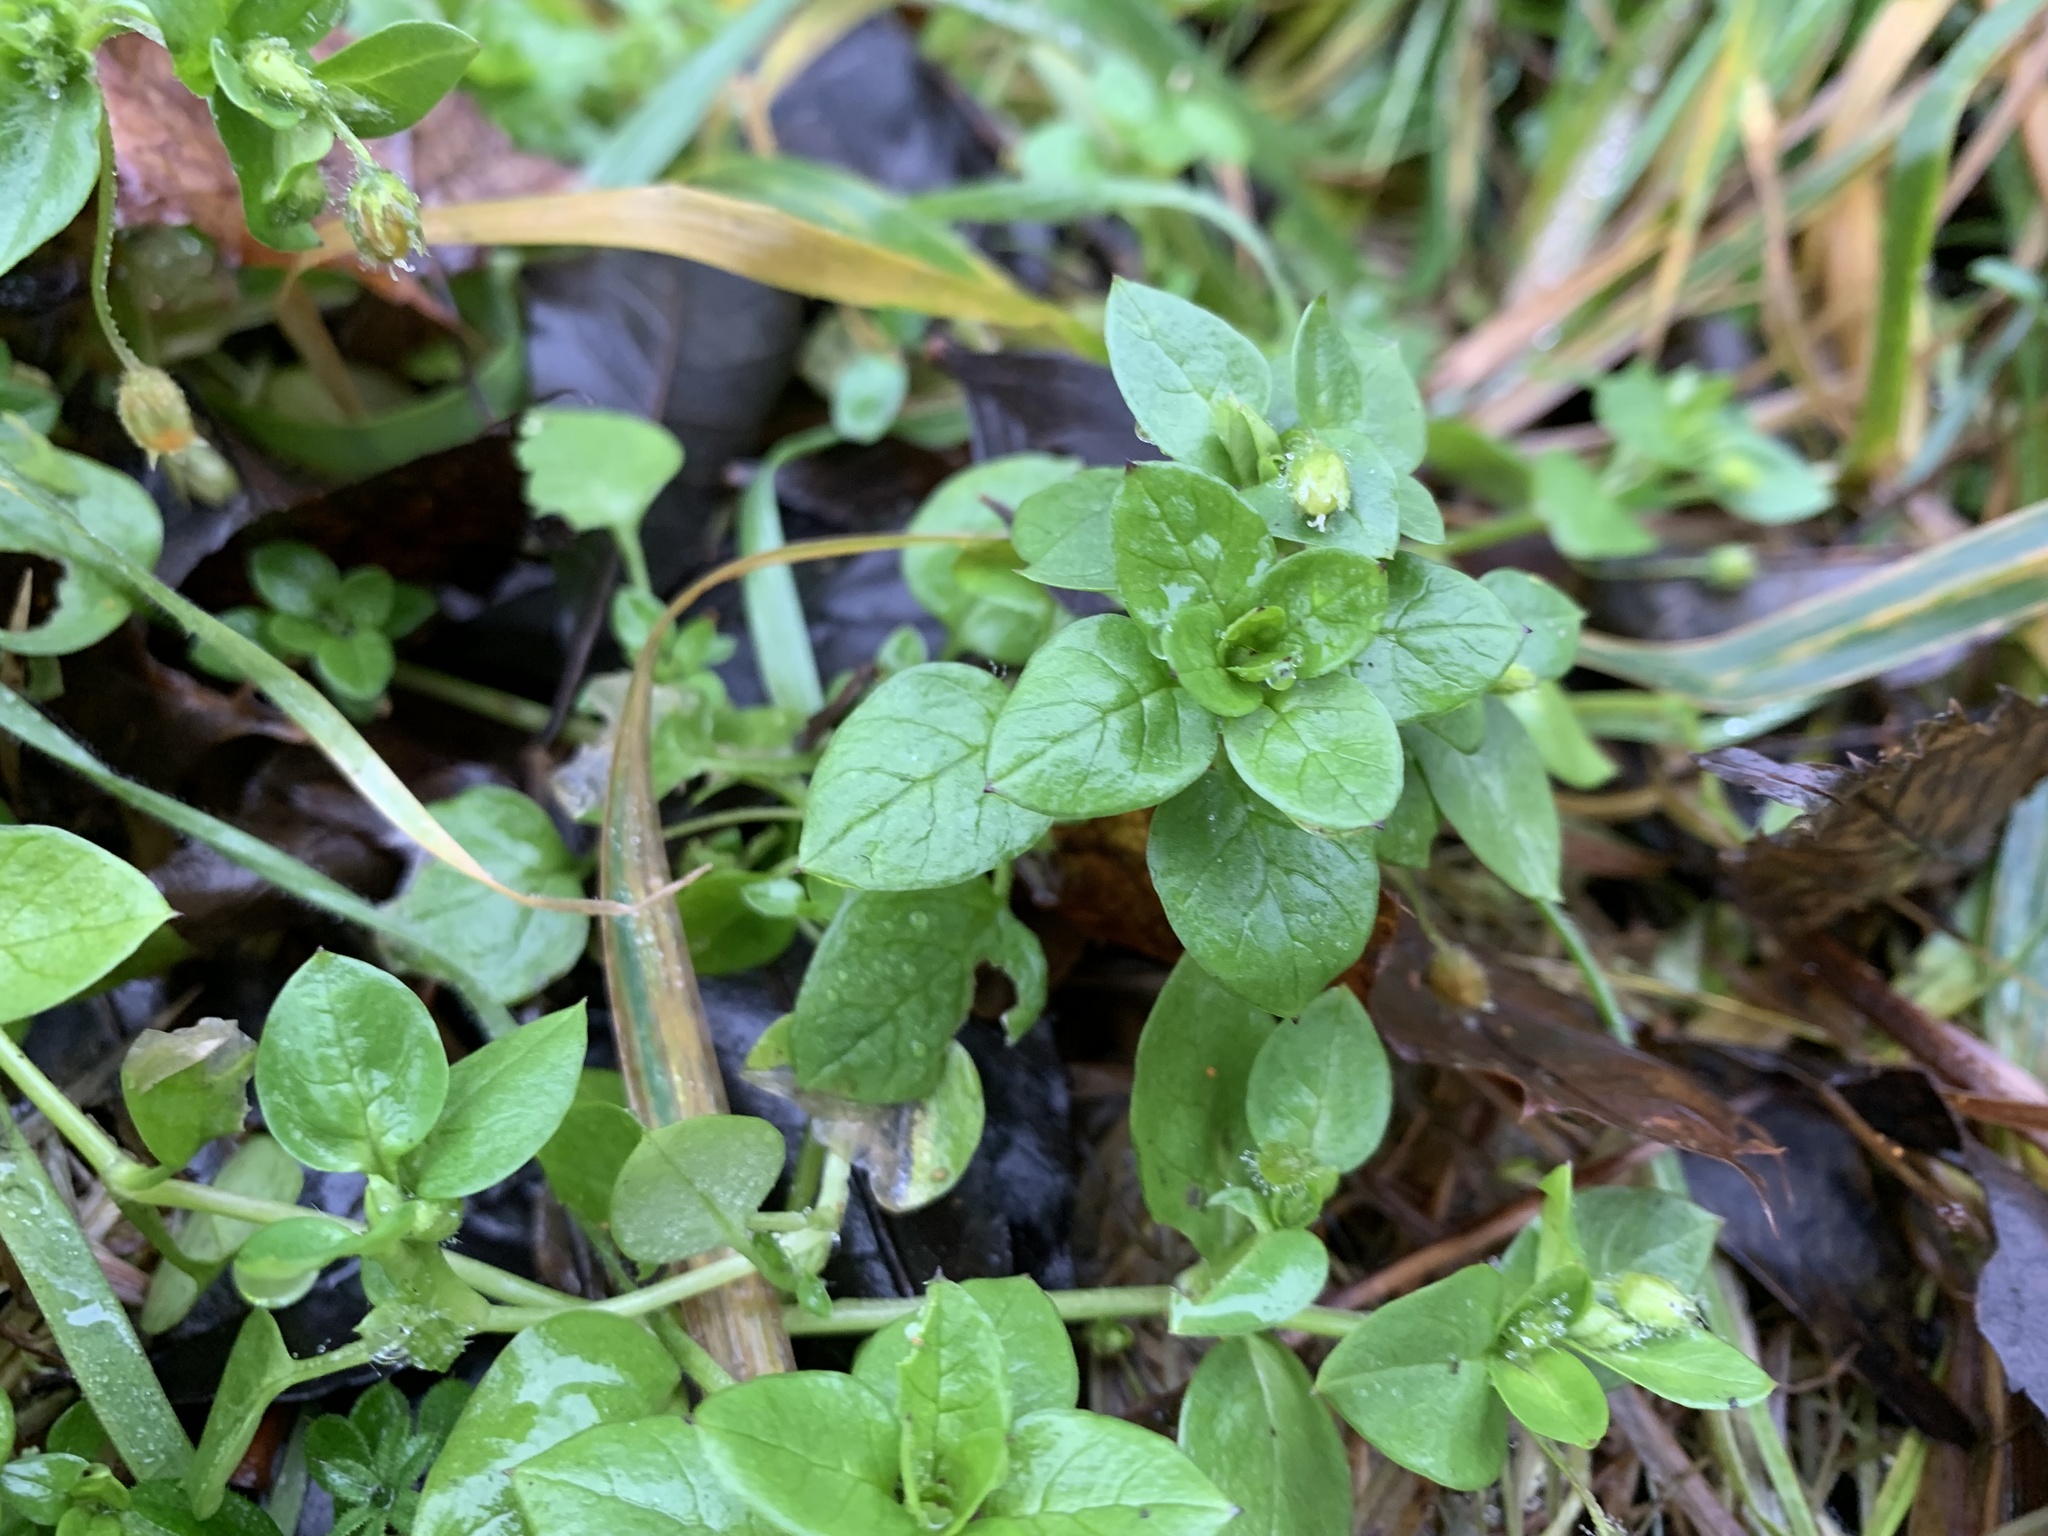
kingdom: Plantae
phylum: Tracheophyta
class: Magnoliopsida
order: Caryophyllales
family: Caryophyllaceae
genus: Stellaria
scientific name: Stellaria media
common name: Common chickweed
